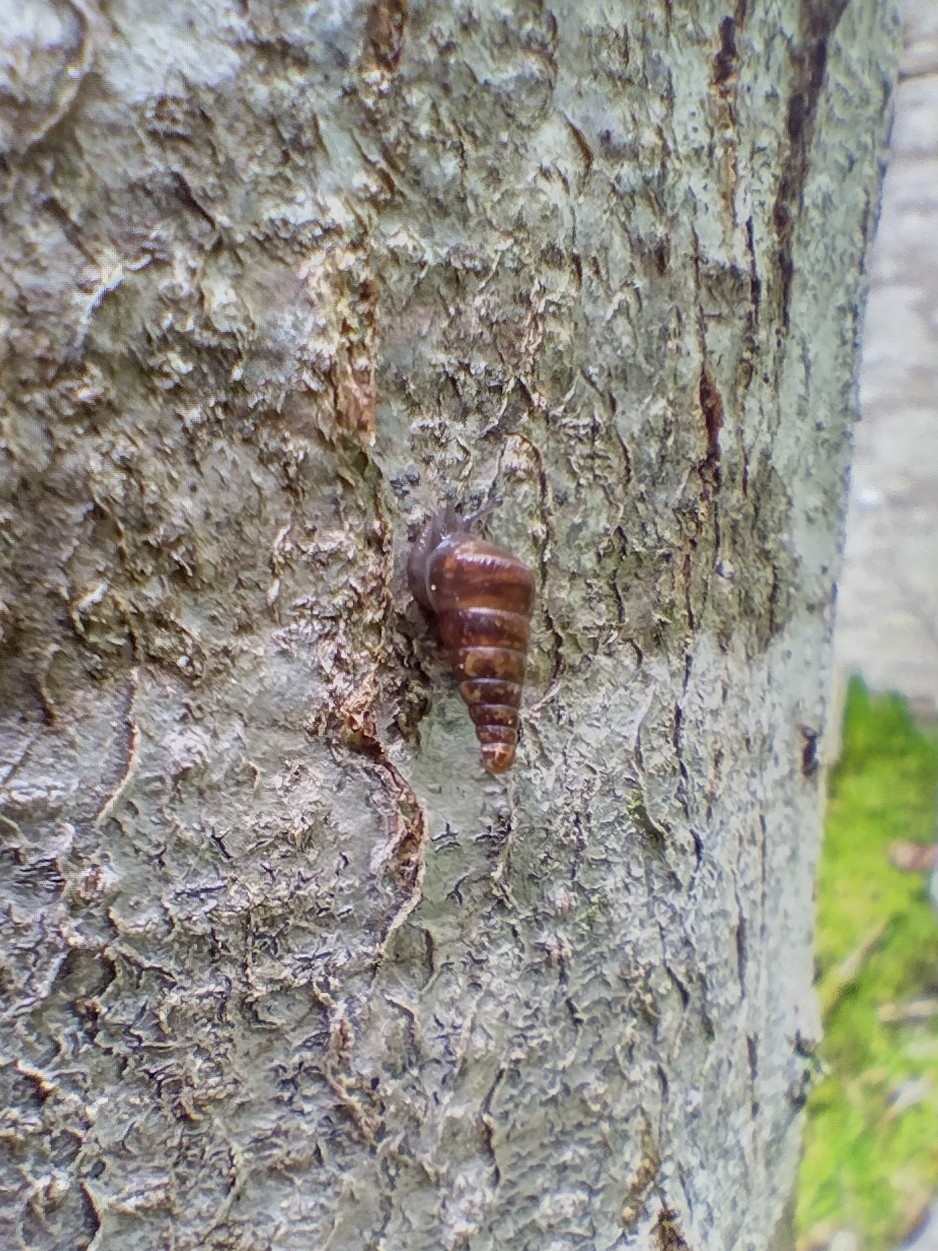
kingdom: Animalia
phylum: Mollusca
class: Gastropoda
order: Stylommatophora
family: Clausiliidae
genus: Cochlodina
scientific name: Cochlodina laminata
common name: Plaited door snail
